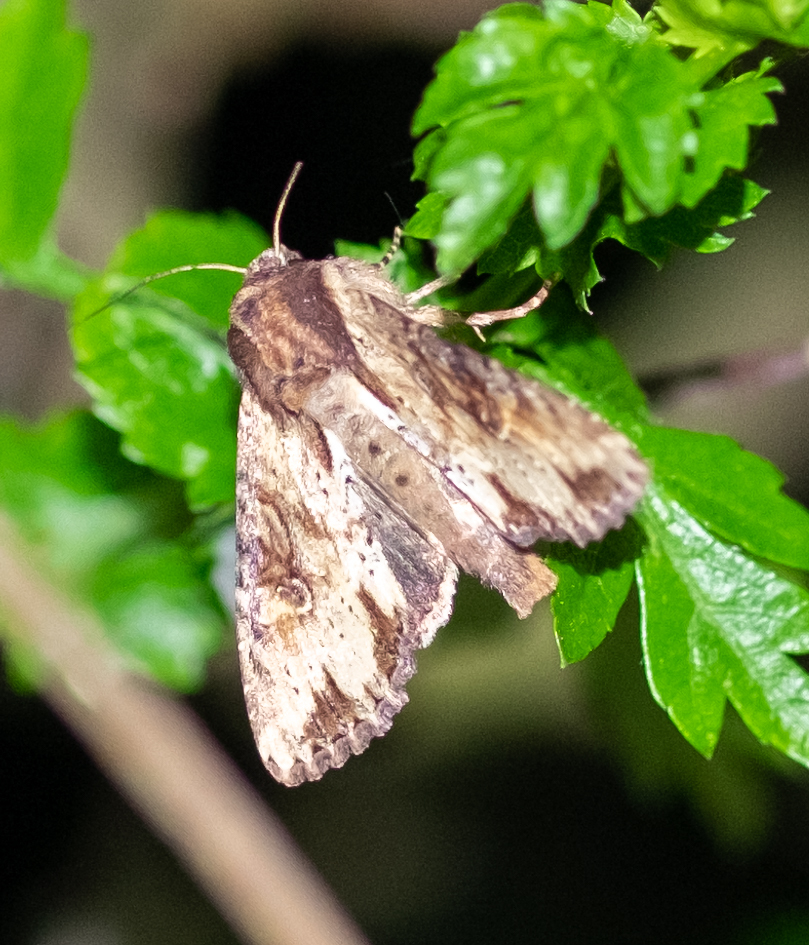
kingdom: Animalia
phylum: Arthropoda
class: Insecta
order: Lepidoptera
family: Noctuidae
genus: Apamea
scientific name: Apamea crenata
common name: Clouded-bordered brindle
